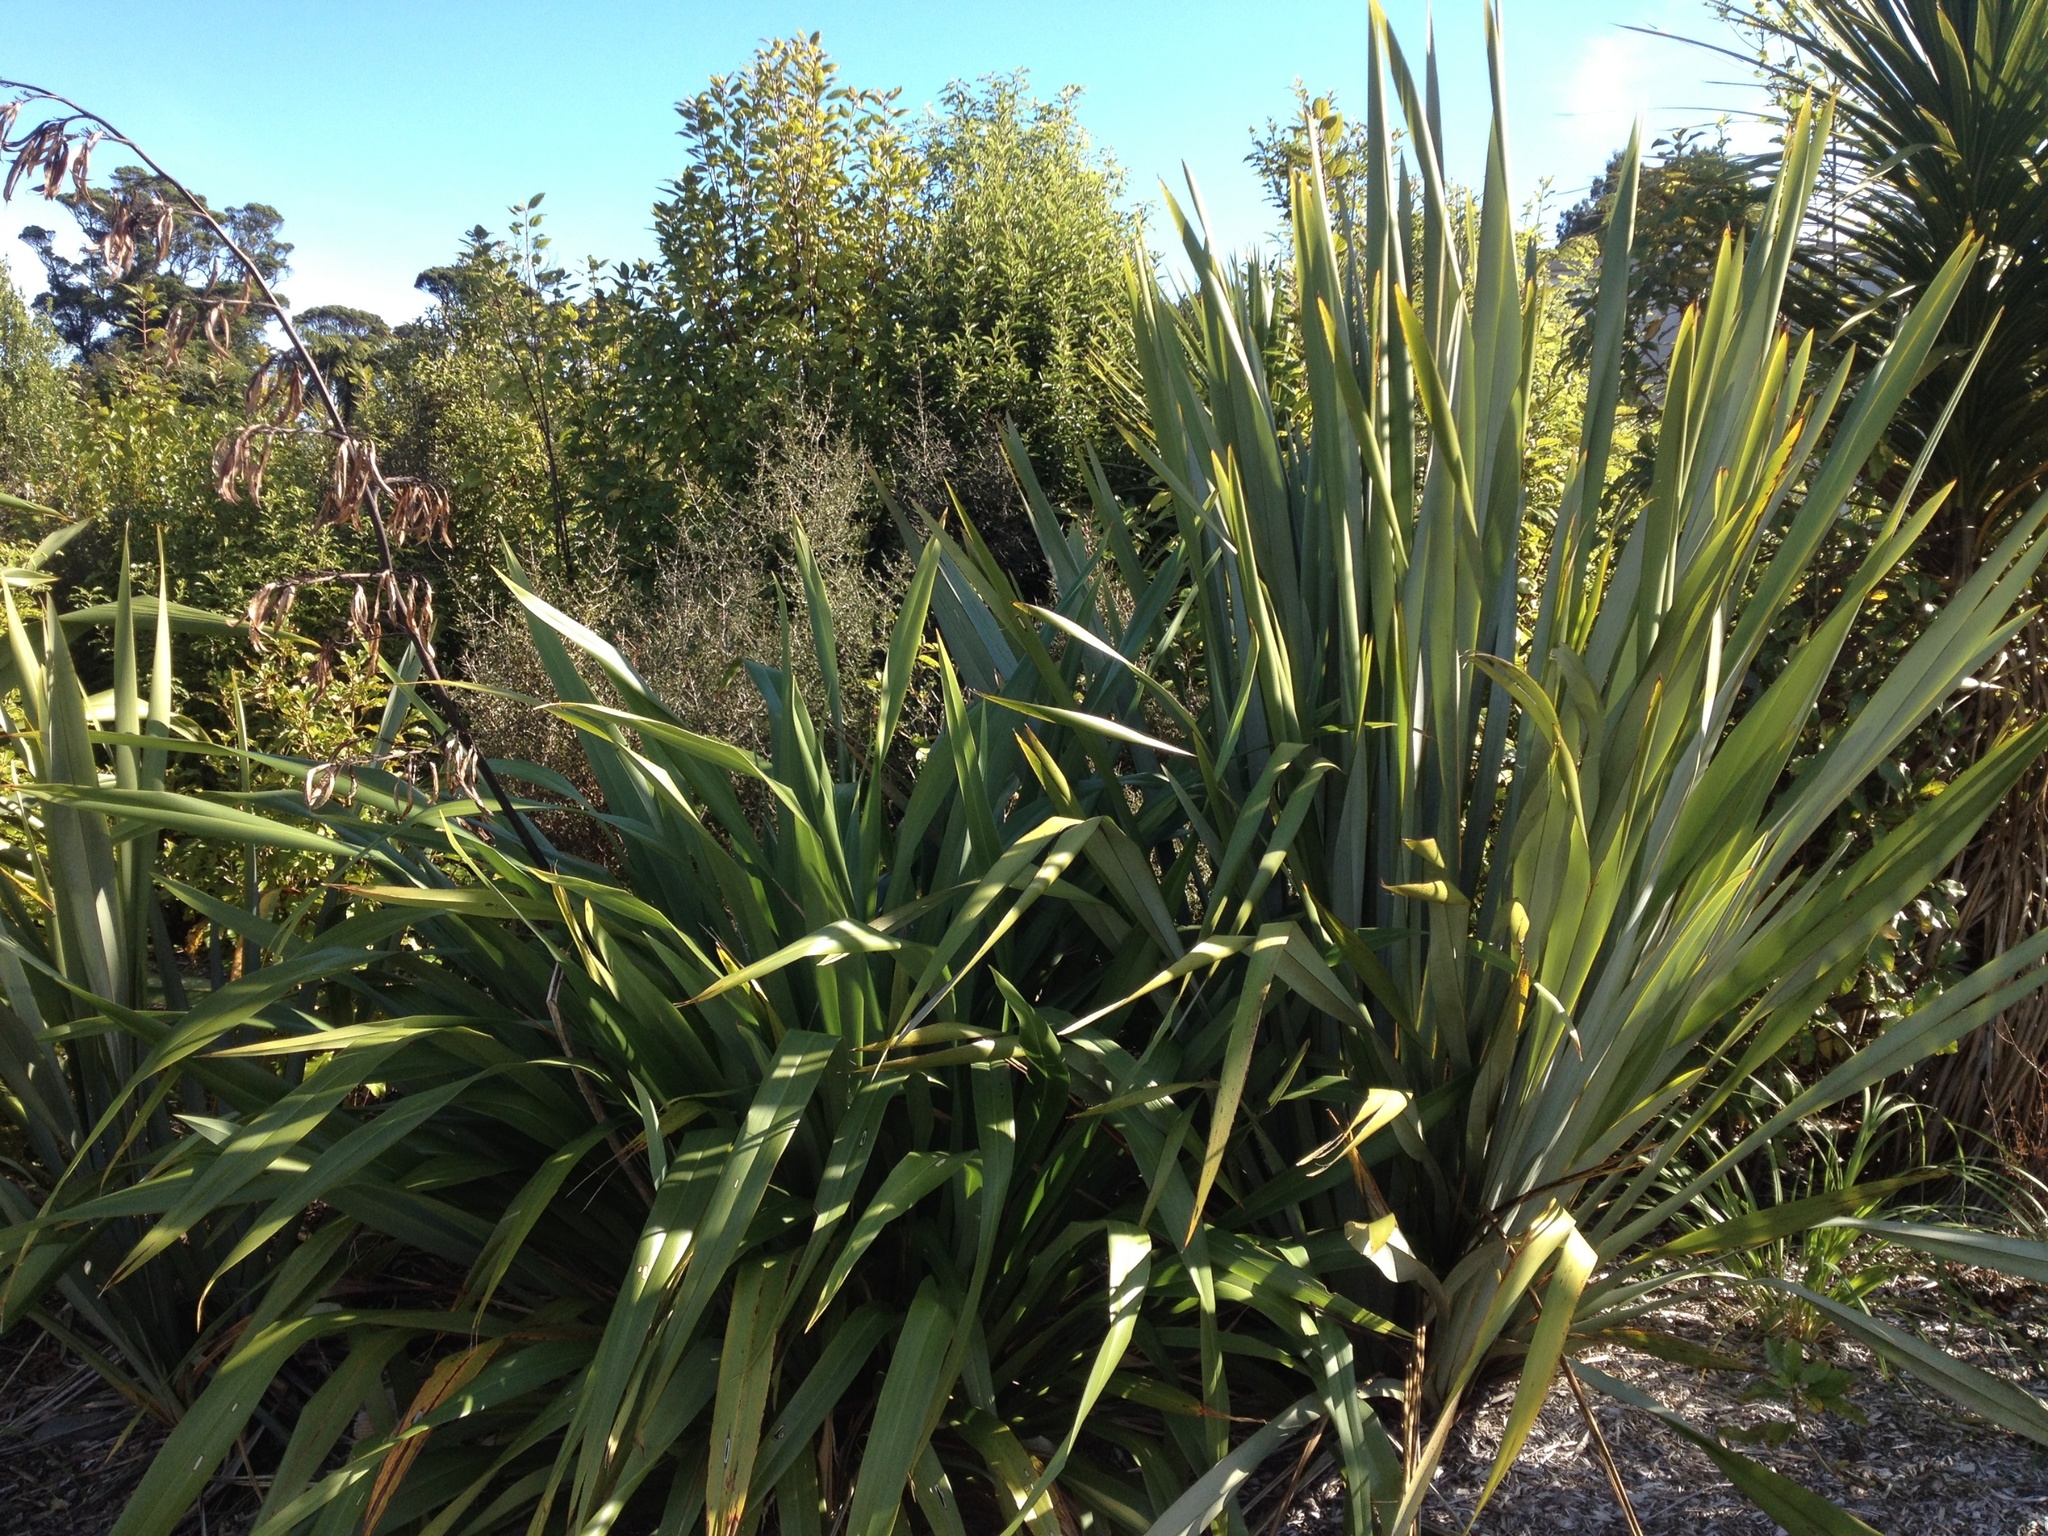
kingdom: Plantae
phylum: Tracheophyta
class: Liliopsida
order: Asparagales
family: Asphodelaceae
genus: Phormium
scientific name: Phormium colensoi
